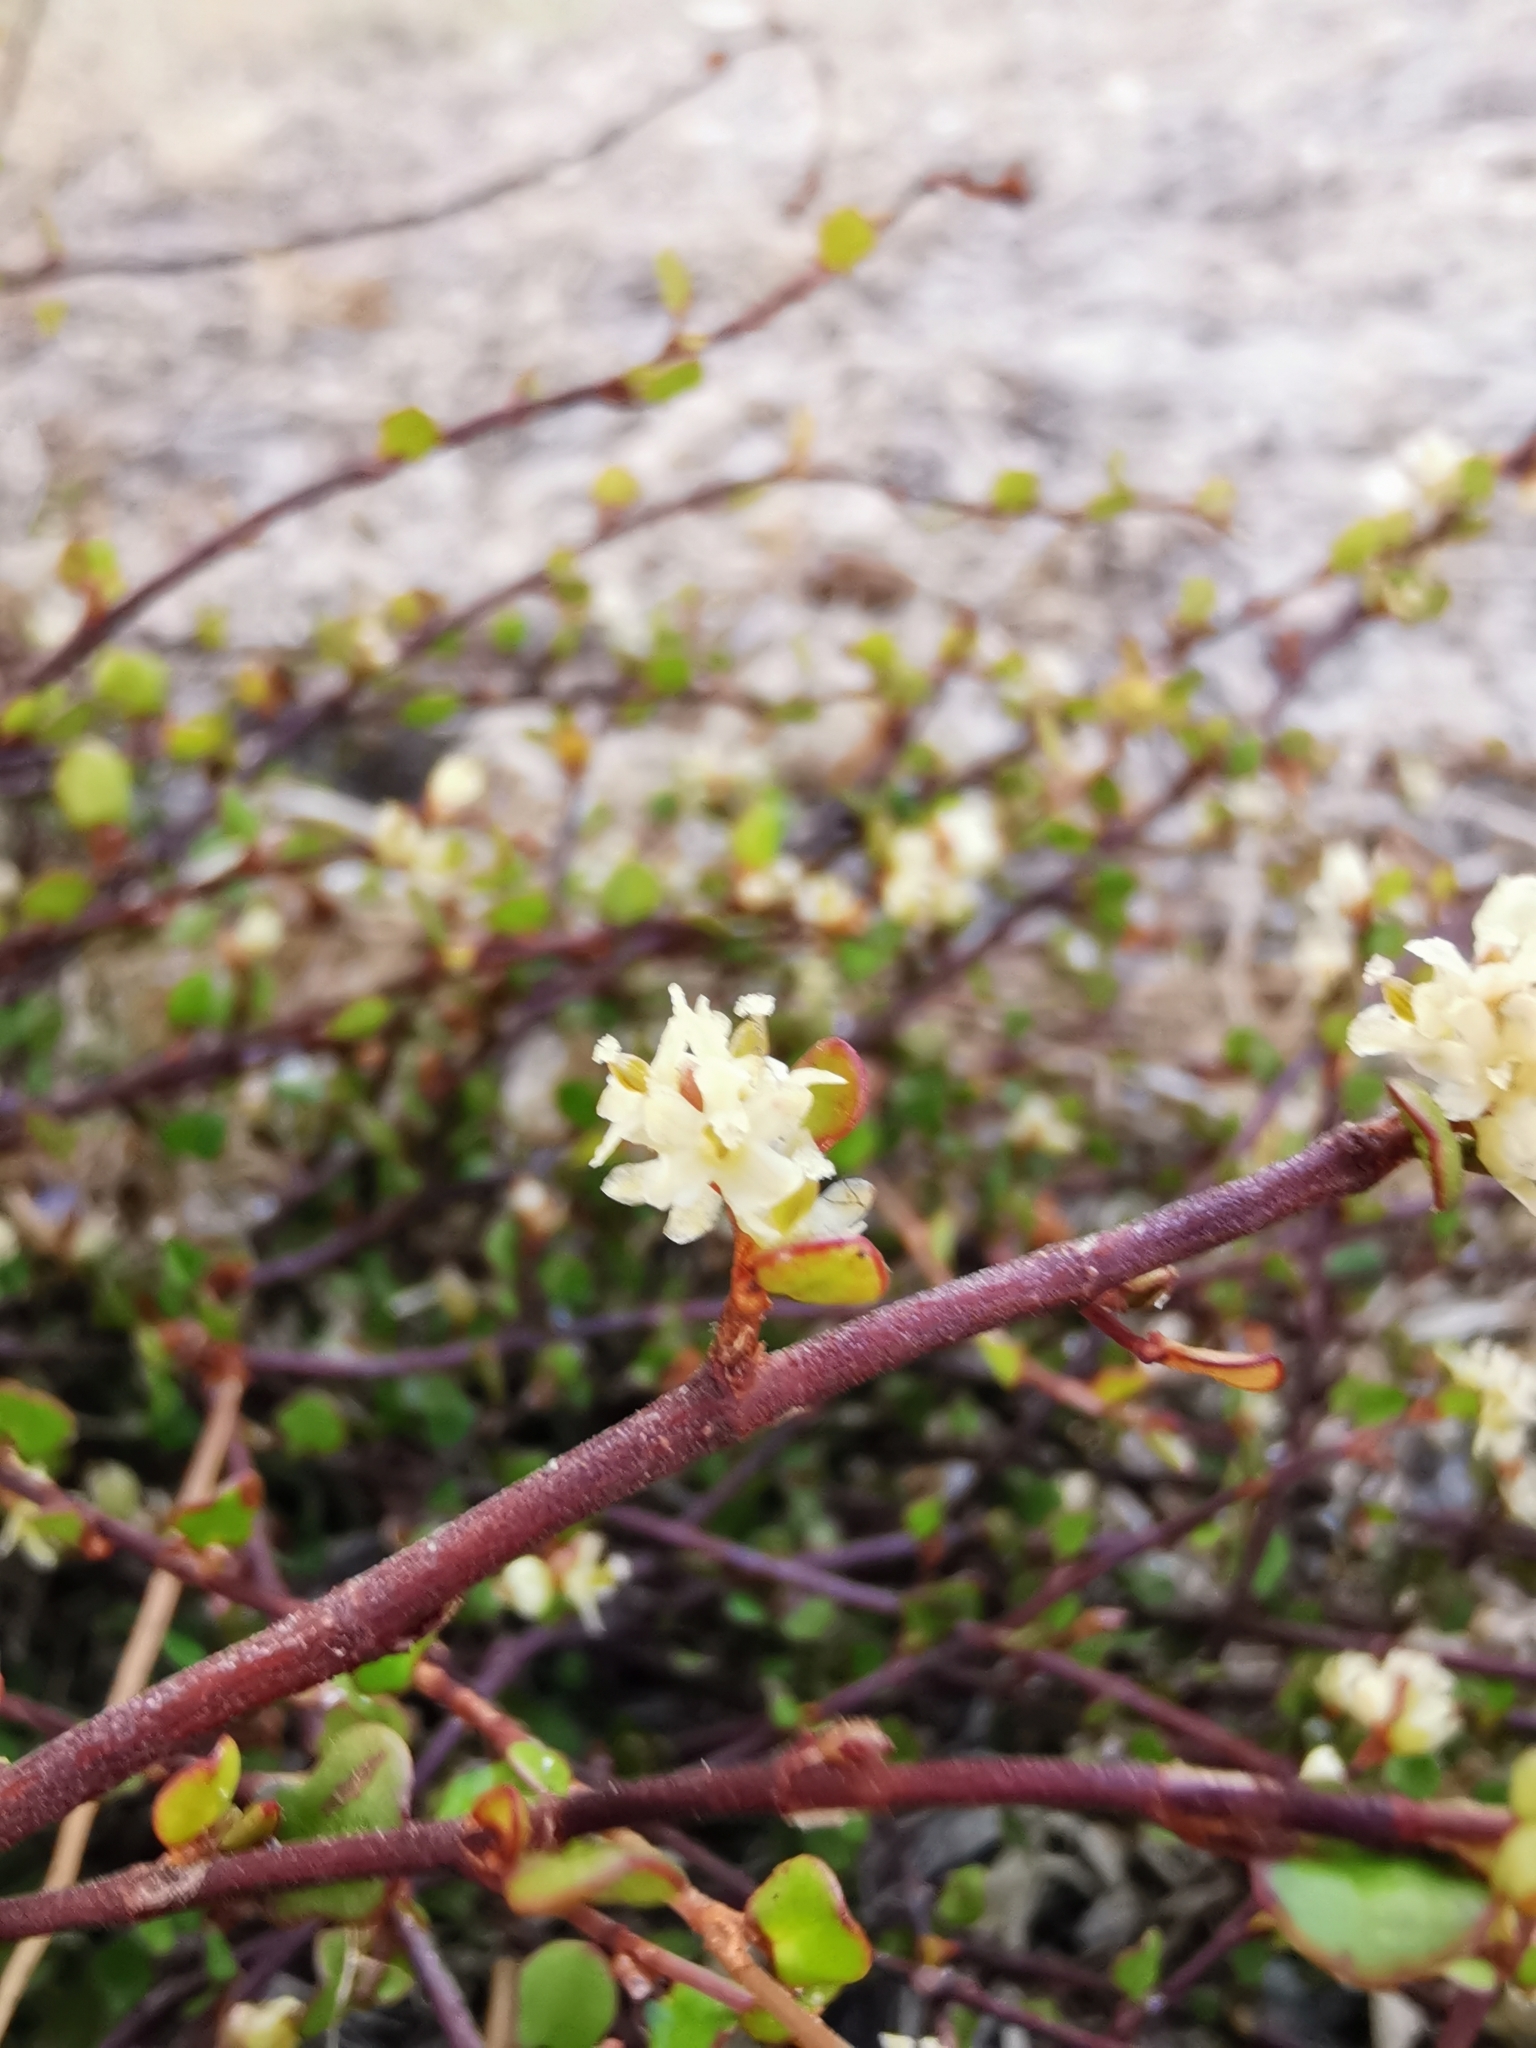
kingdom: Plantae
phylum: Tracheophyta
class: Magnoliopsida
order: Caryophyllales
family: Polygonaceae
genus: Muehlenbeckia
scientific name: Muehlenbeckia complexa
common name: Wireplant
